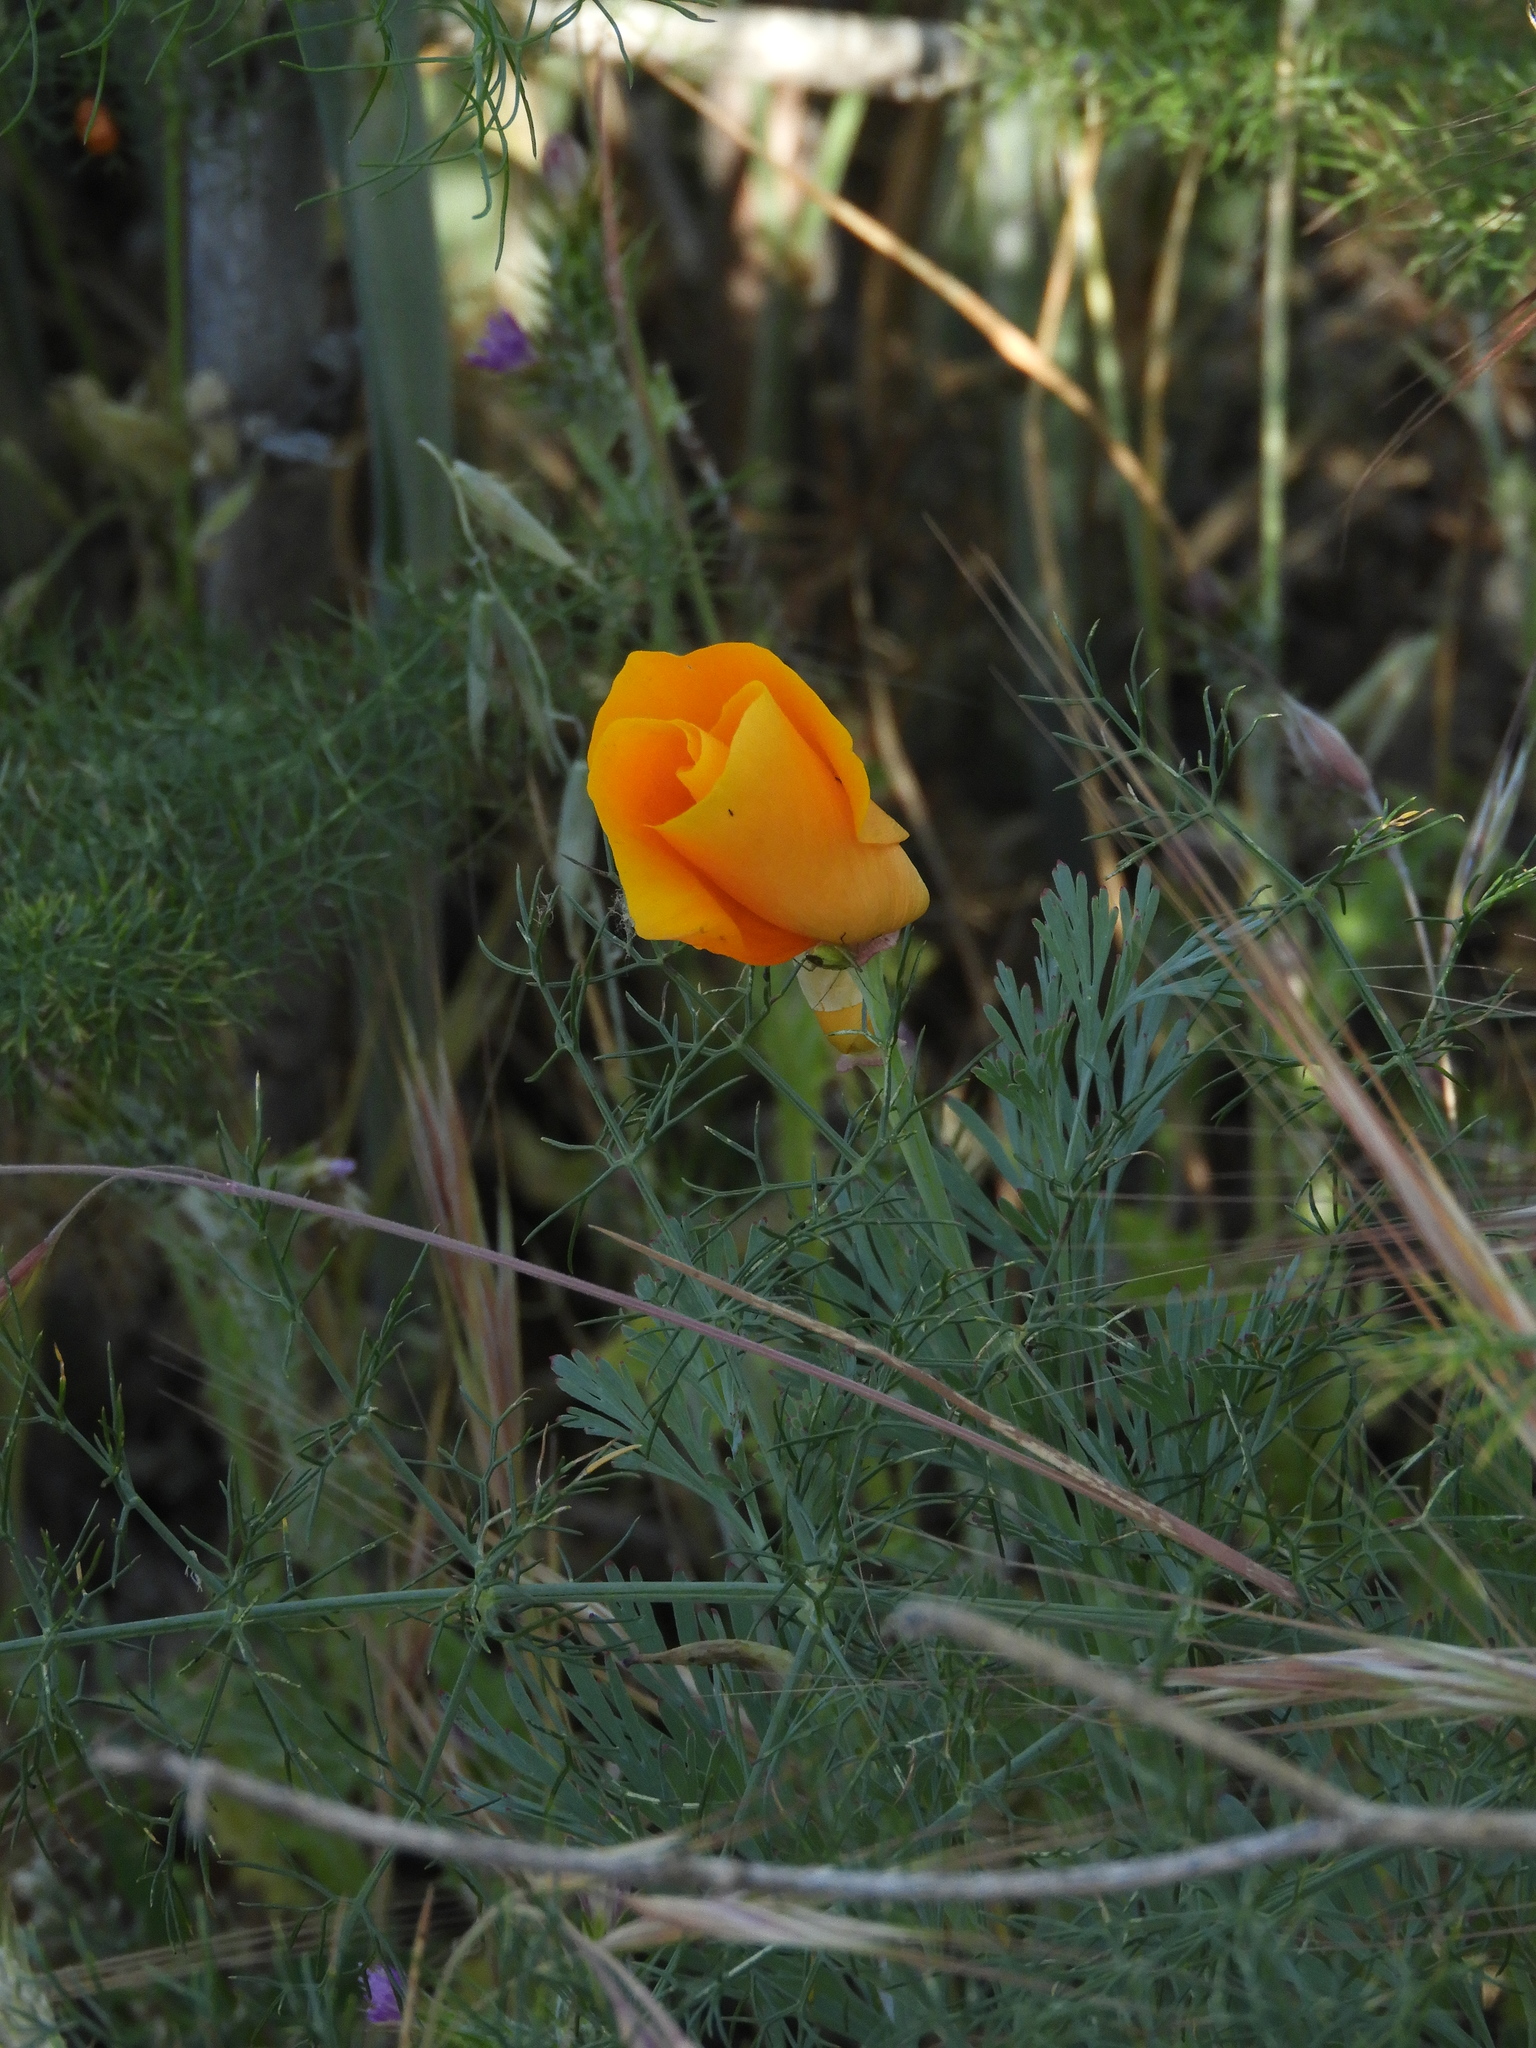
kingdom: Plantae
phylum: Tracheophyta
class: Magnoliopsida
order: Ranunculales
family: Papaveraceae
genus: Eschscholzia
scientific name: Eschscholzia californica
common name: California poppy
